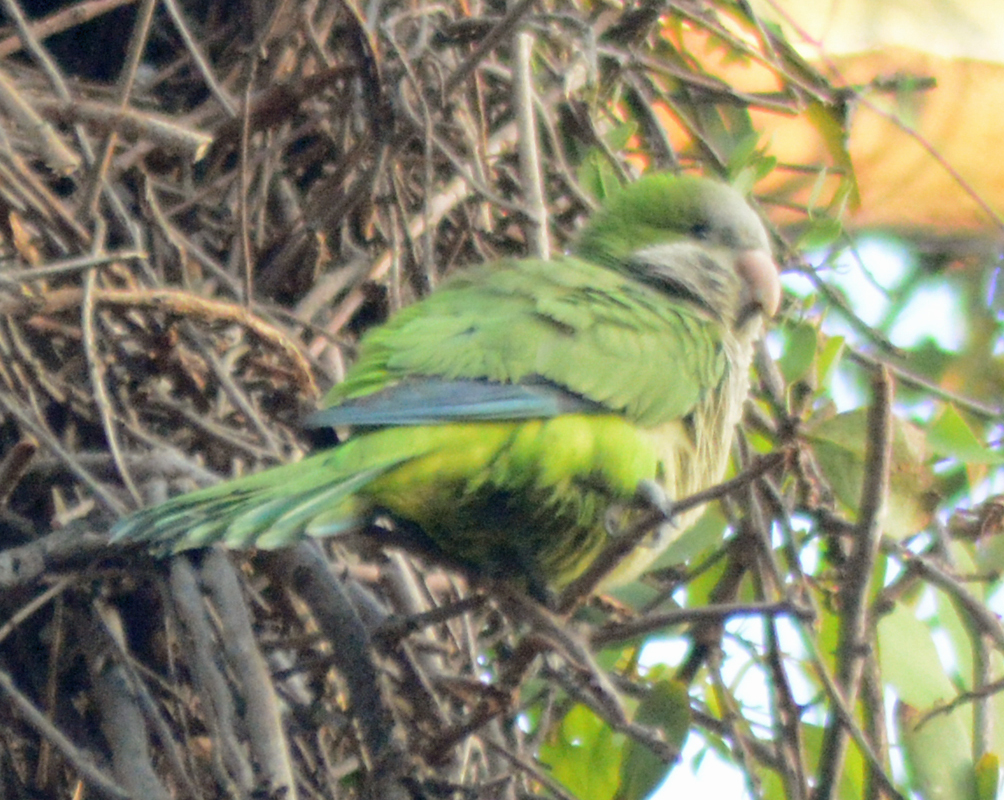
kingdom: Animalia
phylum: Chordata
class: Aves
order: Psittaciformes
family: Psittacidae
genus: Myiopsitta
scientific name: Myiopsitta monachus
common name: Monk parakeet
